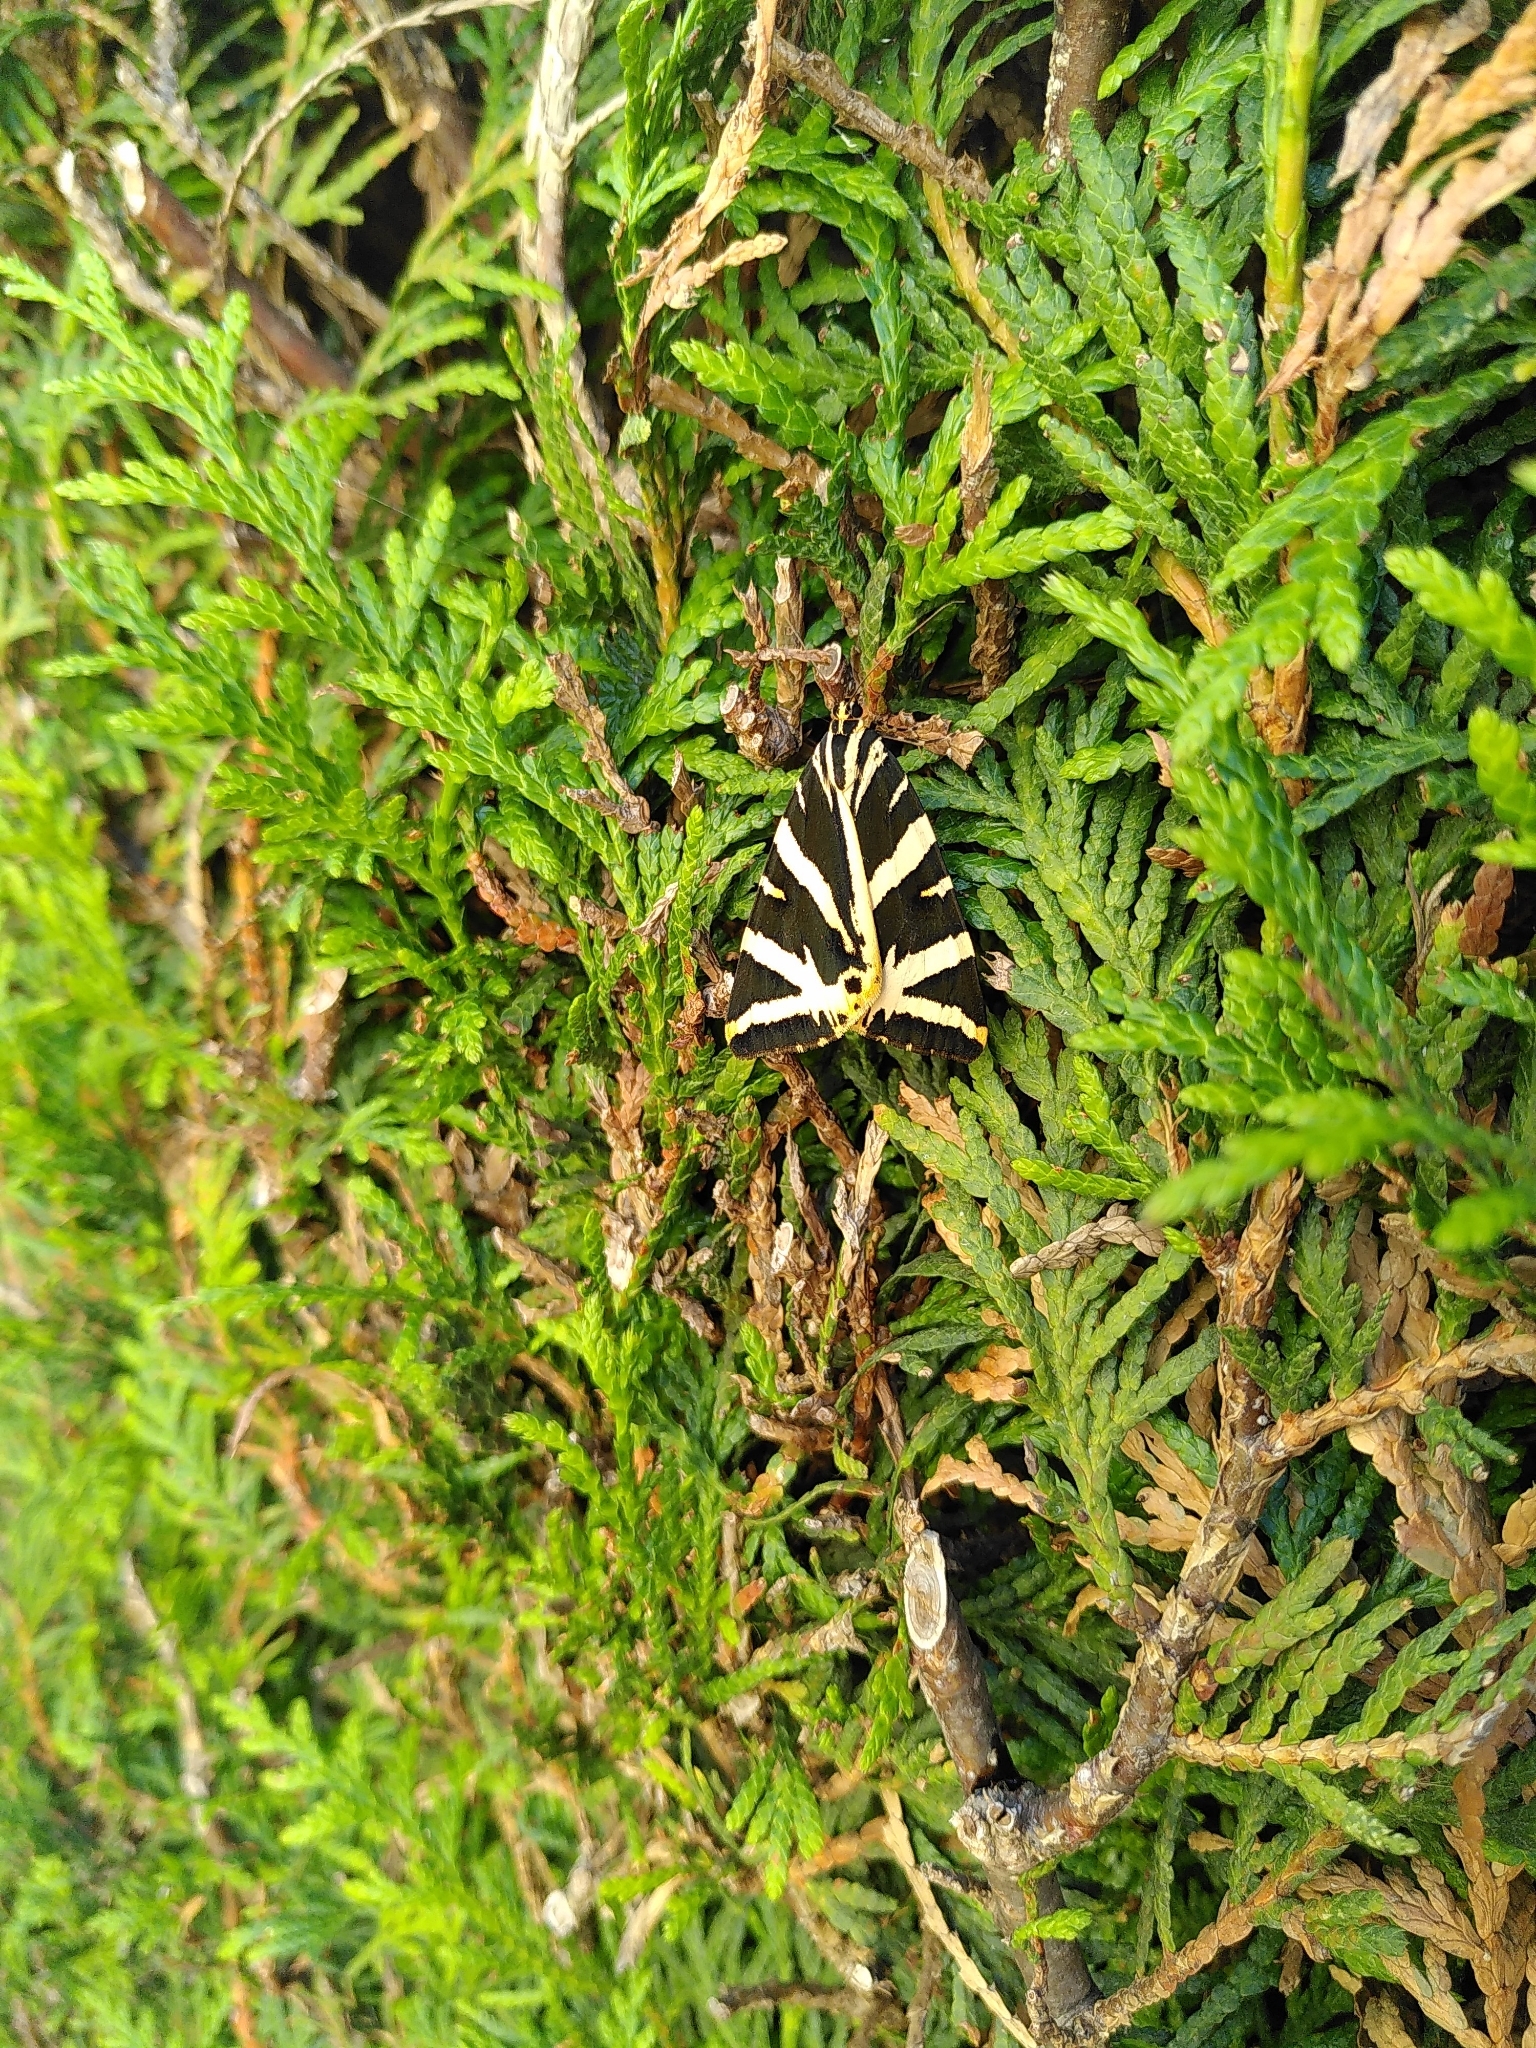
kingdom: Animalia
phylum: Arthropoda
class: Insecta
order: Lepidoptera
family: Erebidae
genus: Euplagia
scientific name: Euplagia quadripunctaria
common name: Jersey tiger
